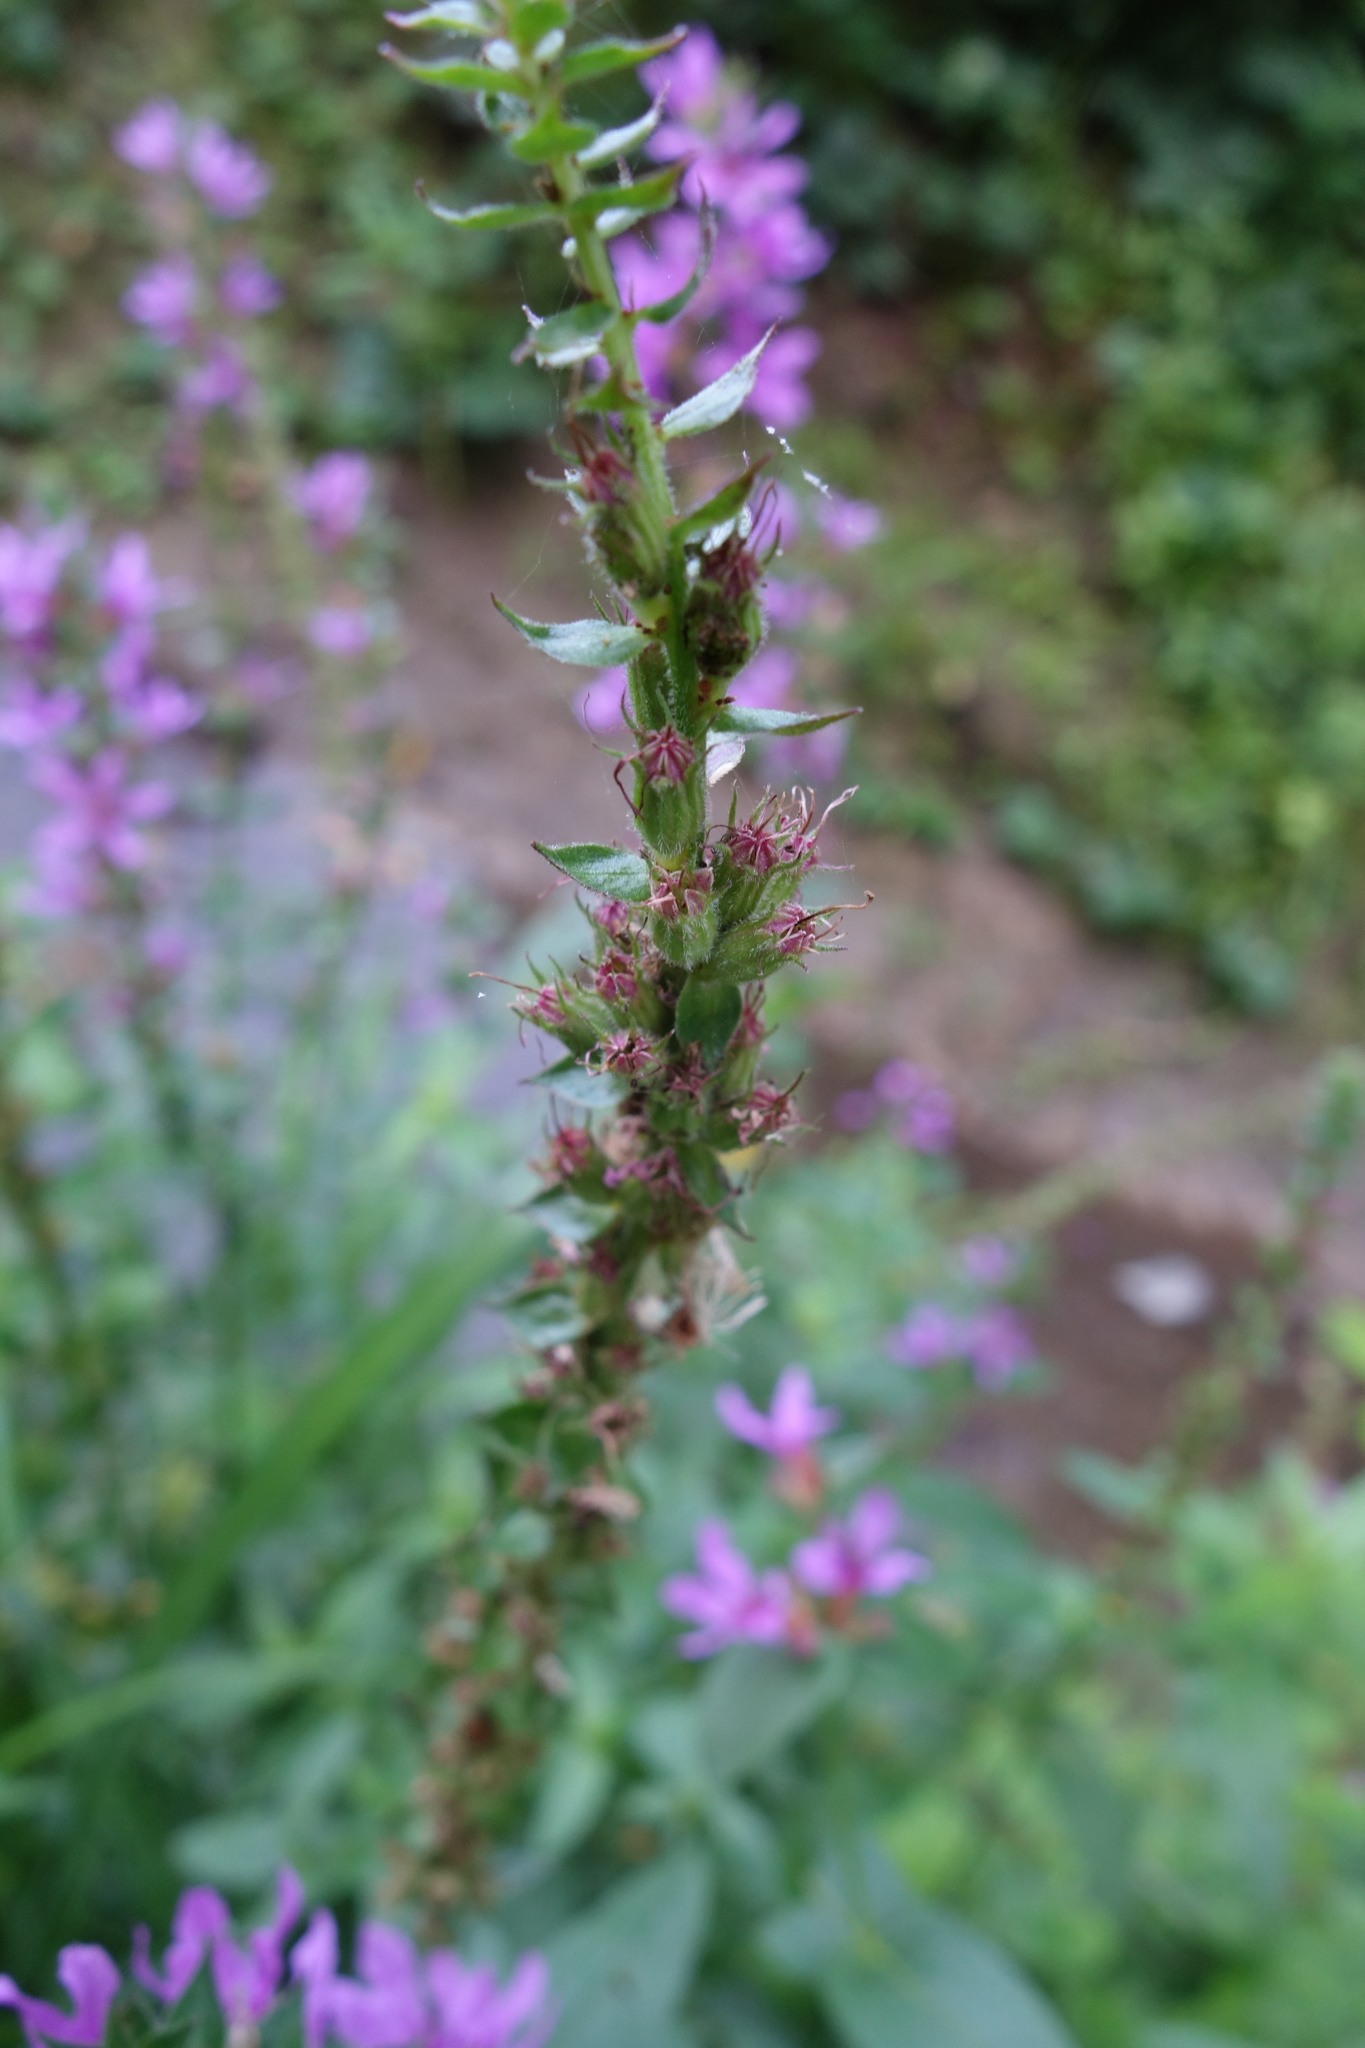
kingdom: Plantae
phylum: Tracheophyta
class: Magnoliopsida
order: Myrtales
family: Lythraceae
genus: Lythrum
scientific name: Lythrum salicaria
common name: Purple loosestrife
